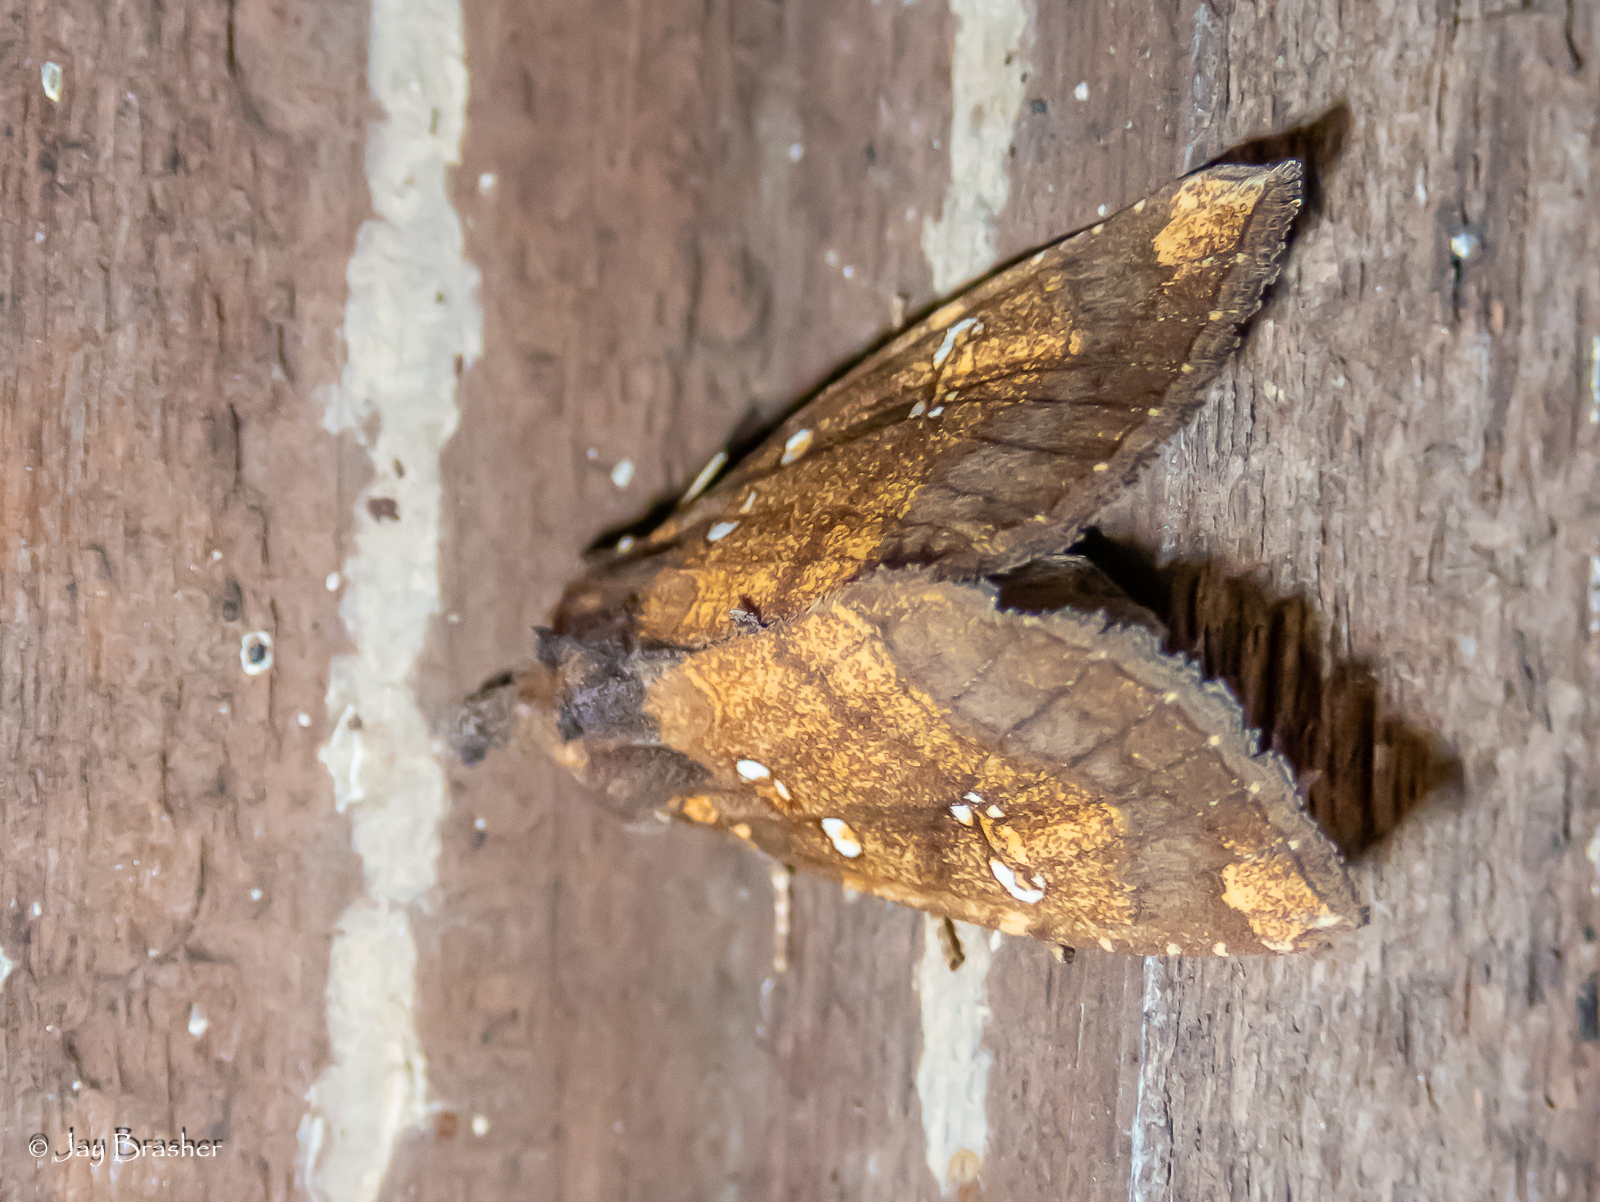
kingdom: Animalia
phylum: Arthropoda
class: Insecta
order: Lepidoptera
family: Noctuidae
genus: Papaipema
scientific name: Papaipema arctivorens
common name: Northern burdock borer moth
